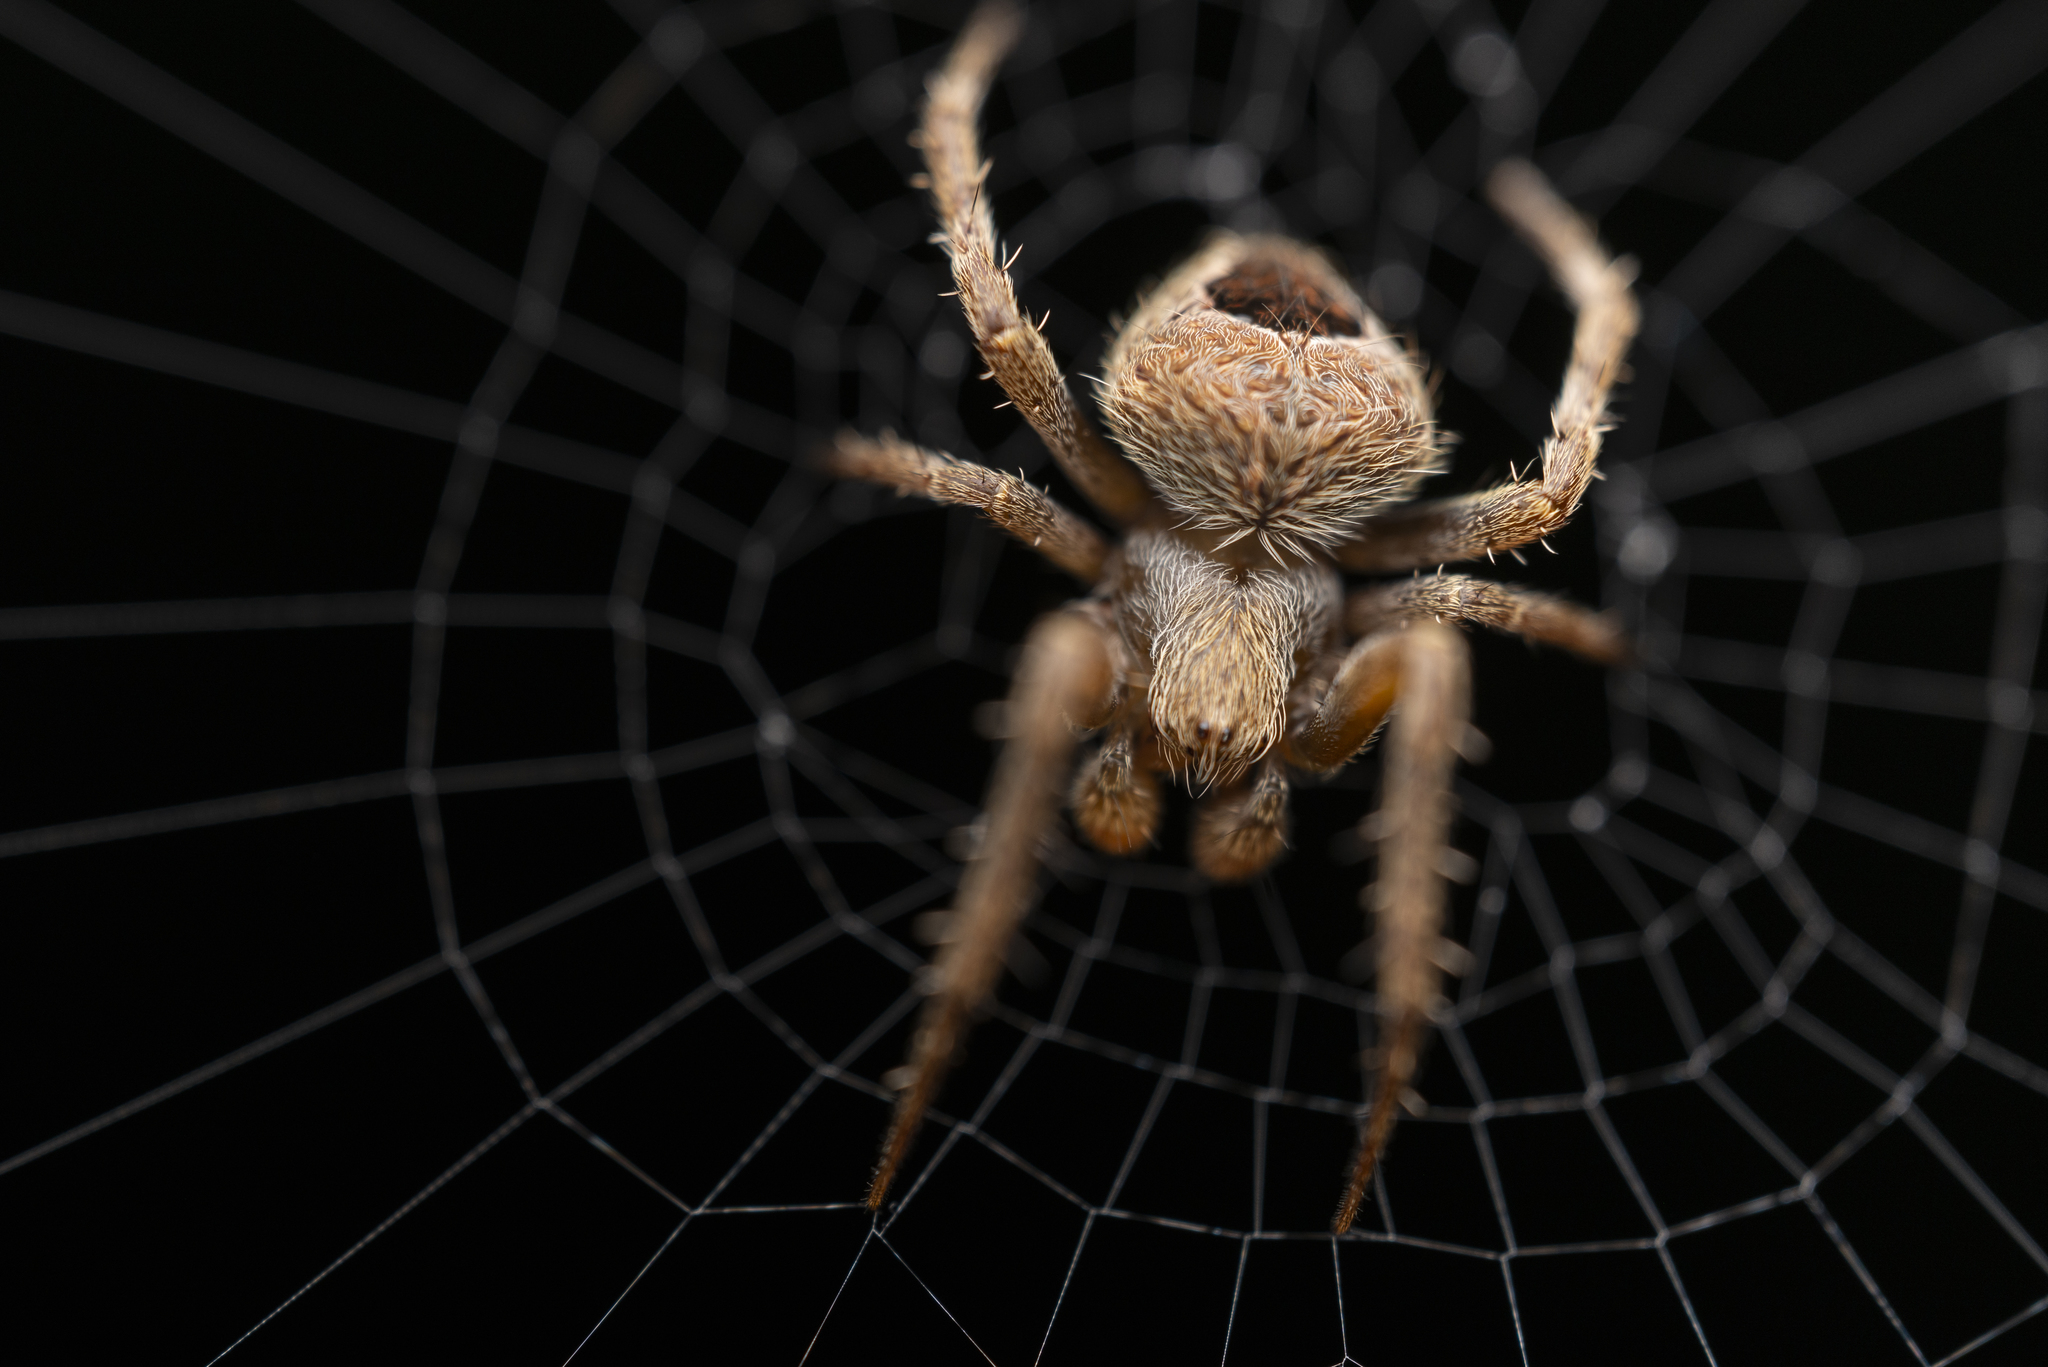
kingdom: Animalia
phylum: Arthropoda
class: Arachnida
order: Araneae
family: Araneidae
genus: Neoscona
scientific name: Neoscona vigilans
